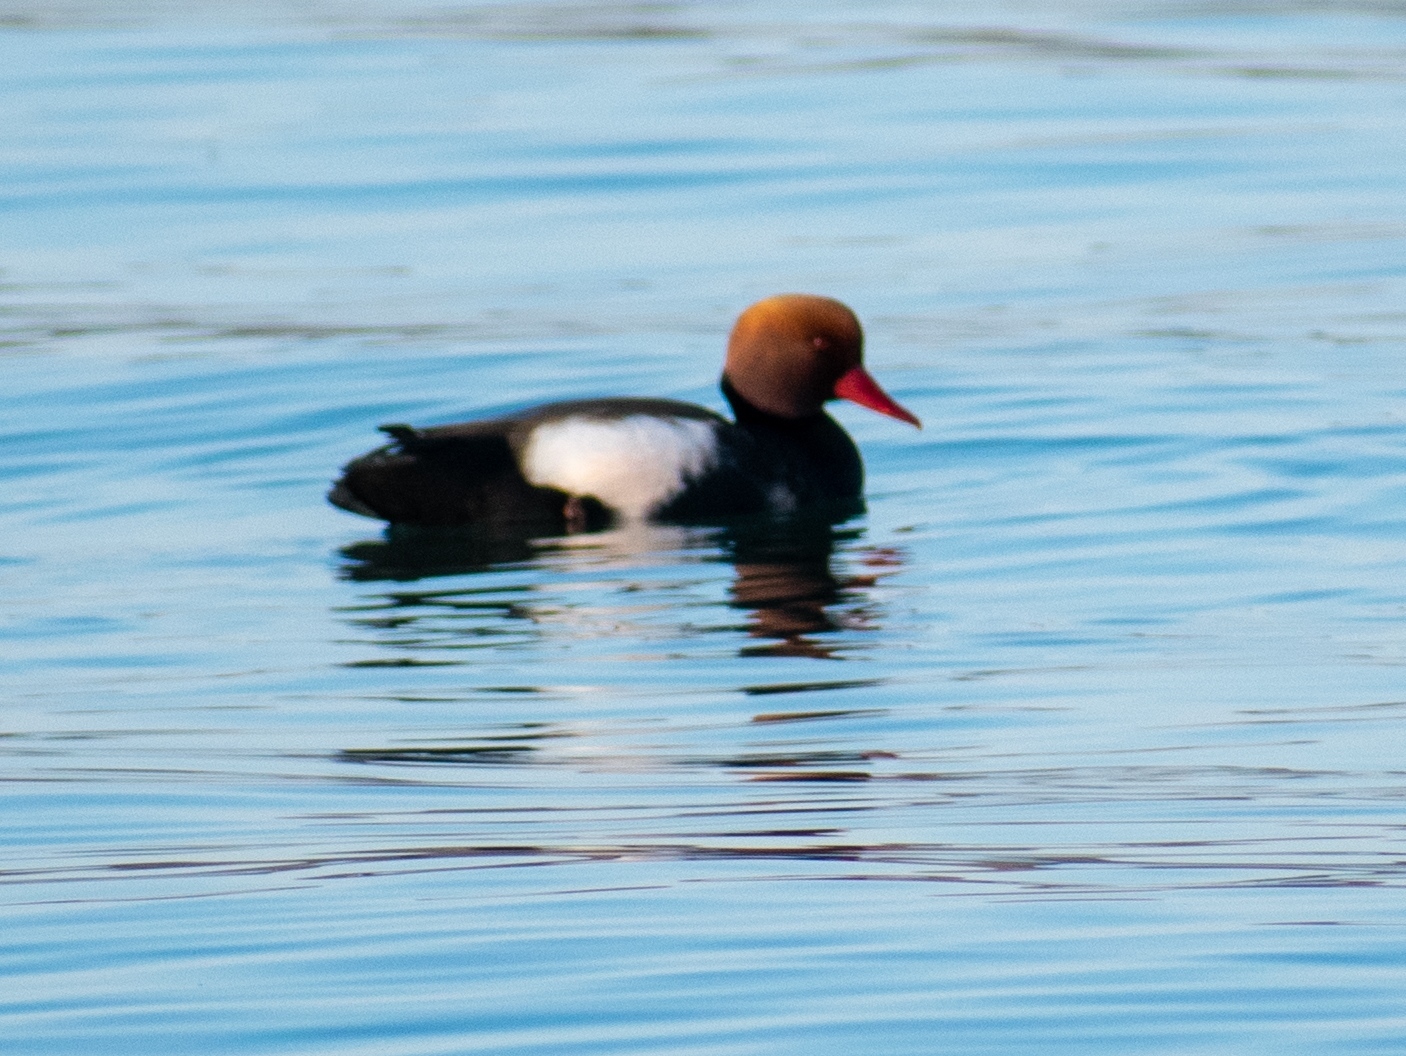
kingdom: Animalia
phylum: Chordata
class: Aves
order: Anseriformes
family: Anatidae
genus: Netta
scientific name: Netta rufina
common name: Red-crested pochard
